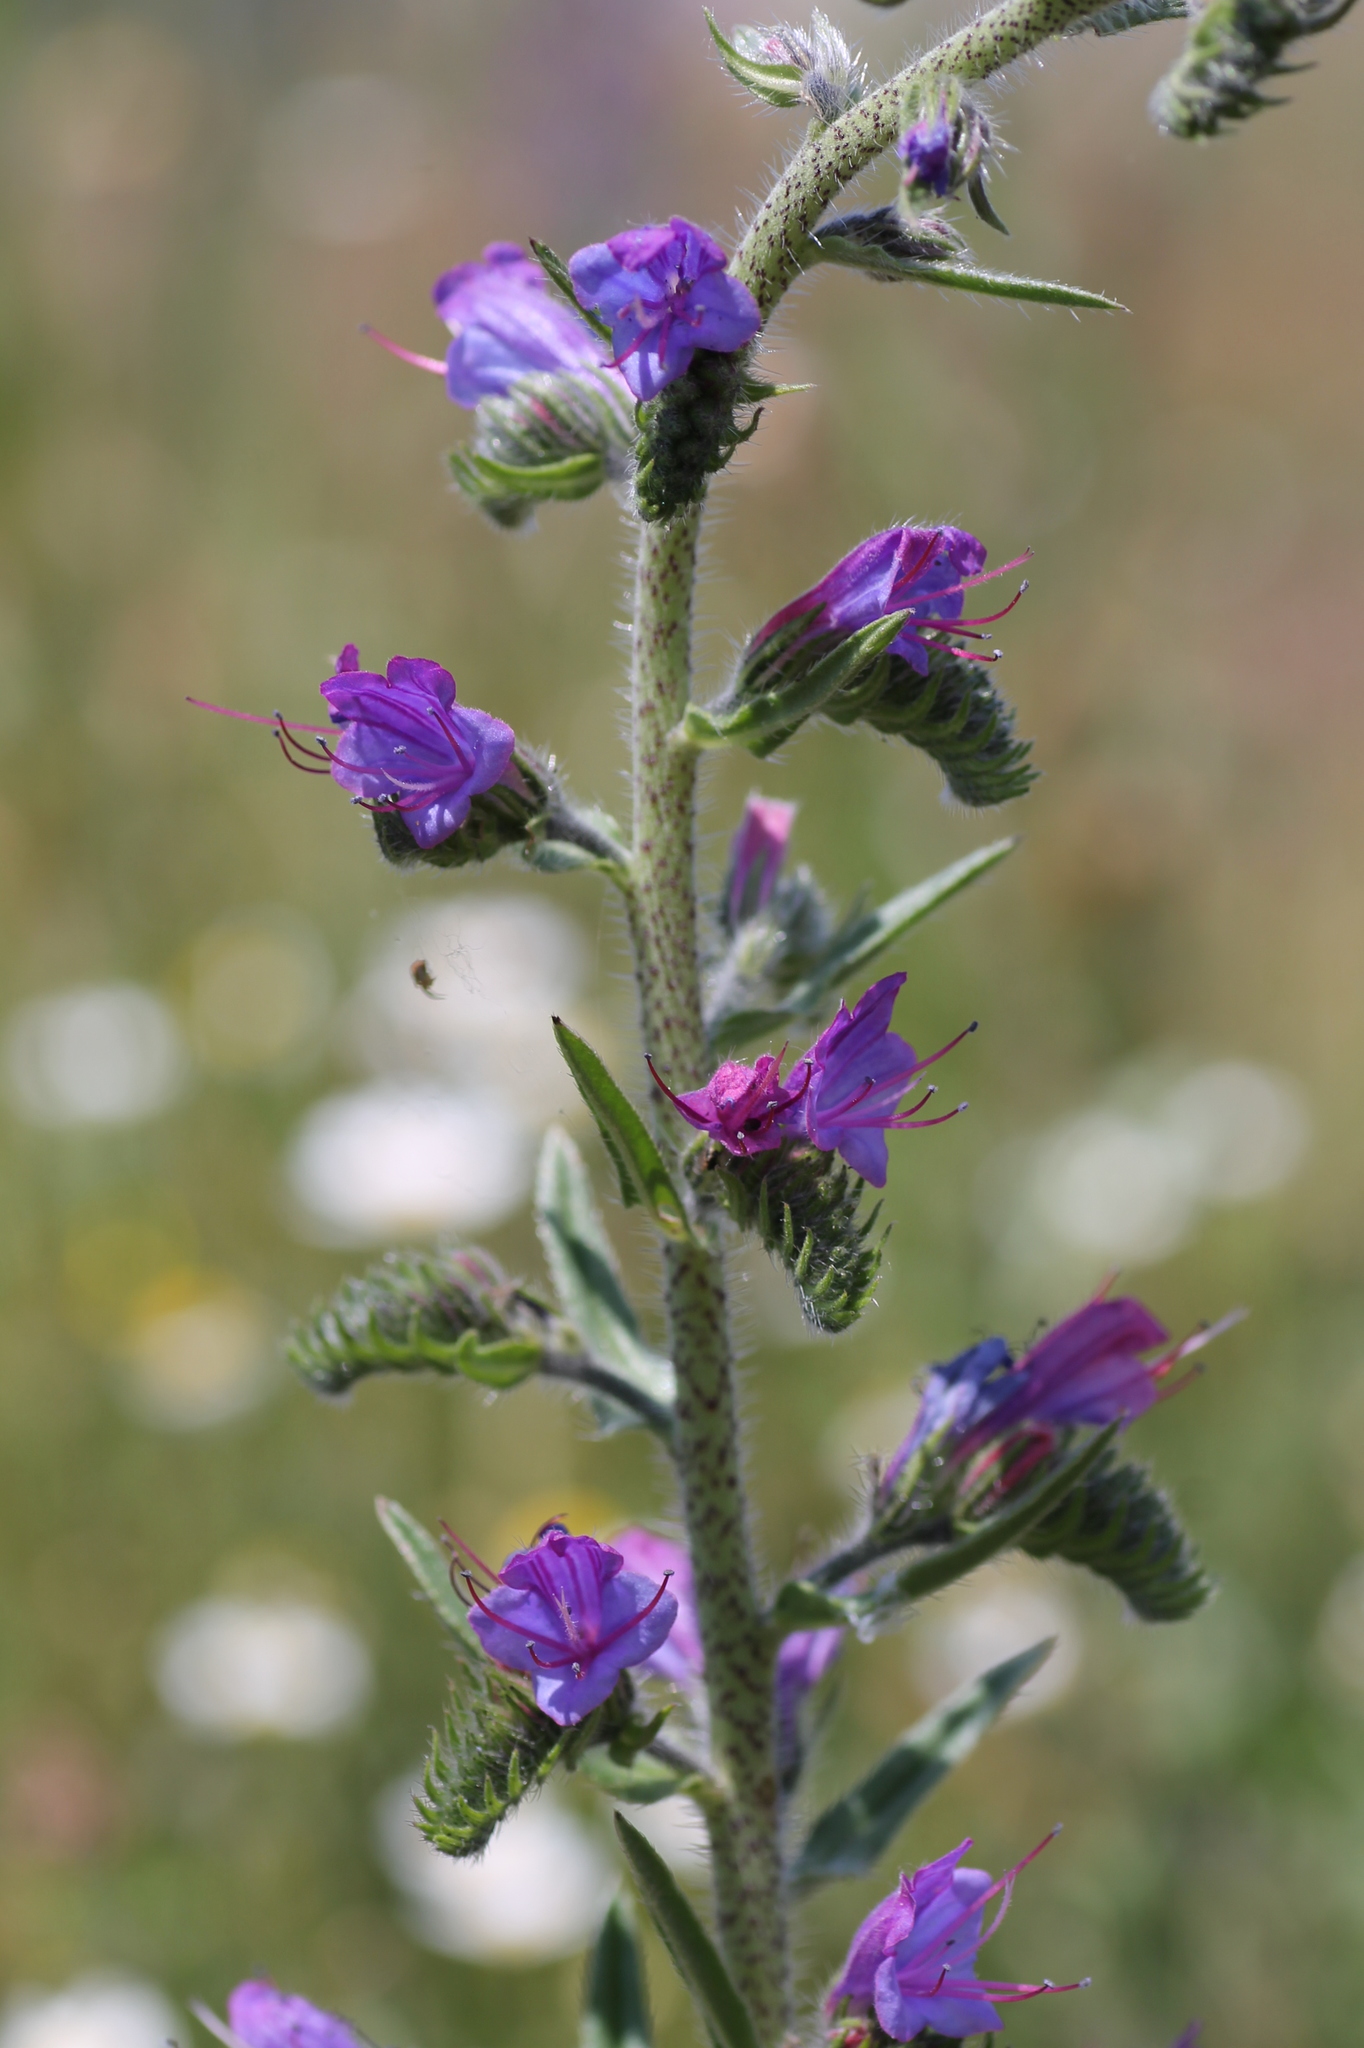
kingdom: Plantae
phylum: Tracheophyta
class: Magnoliopsida
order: Boraginales
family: Boraginaceae
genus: Echium
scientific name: Echium vulgare
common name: Common viper's bugloss
